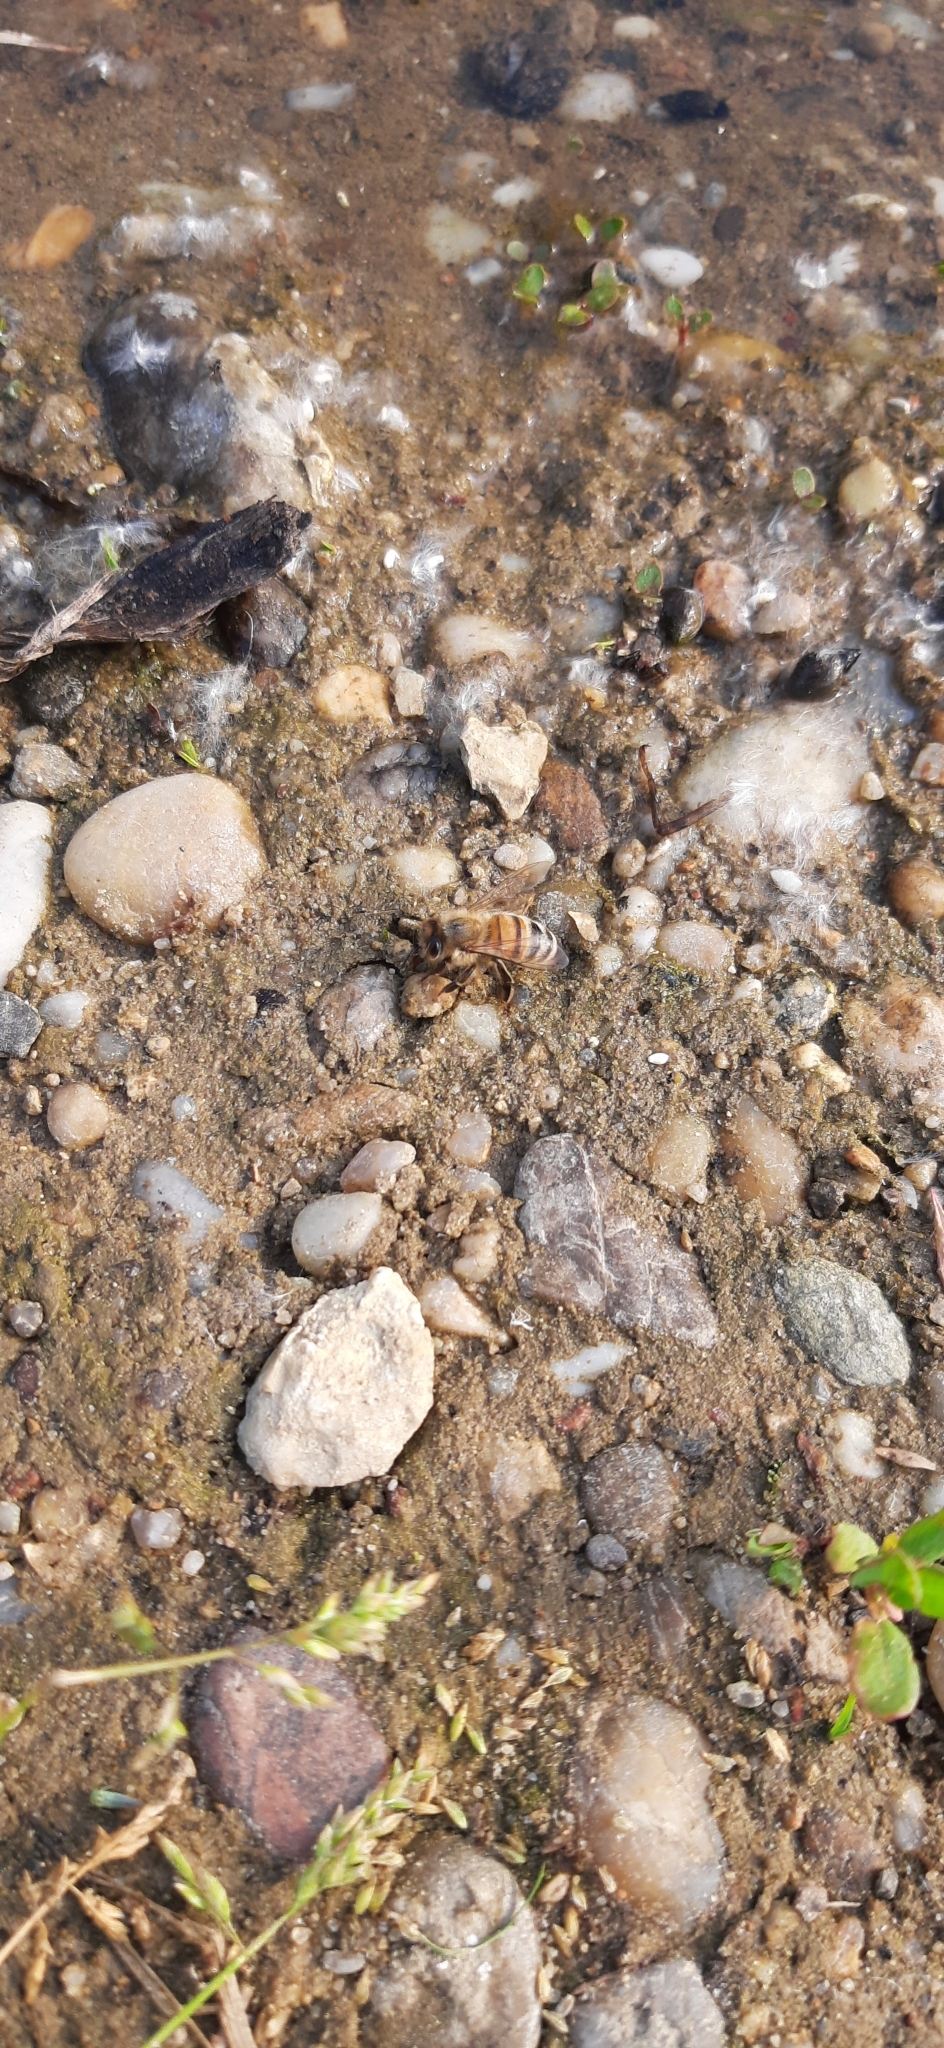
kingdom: Animalia
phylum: Arthropoda
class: Insecta
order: Hymenoptera
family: Apidae
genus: Apis
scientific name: Apis mellifera
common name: Honey bee
